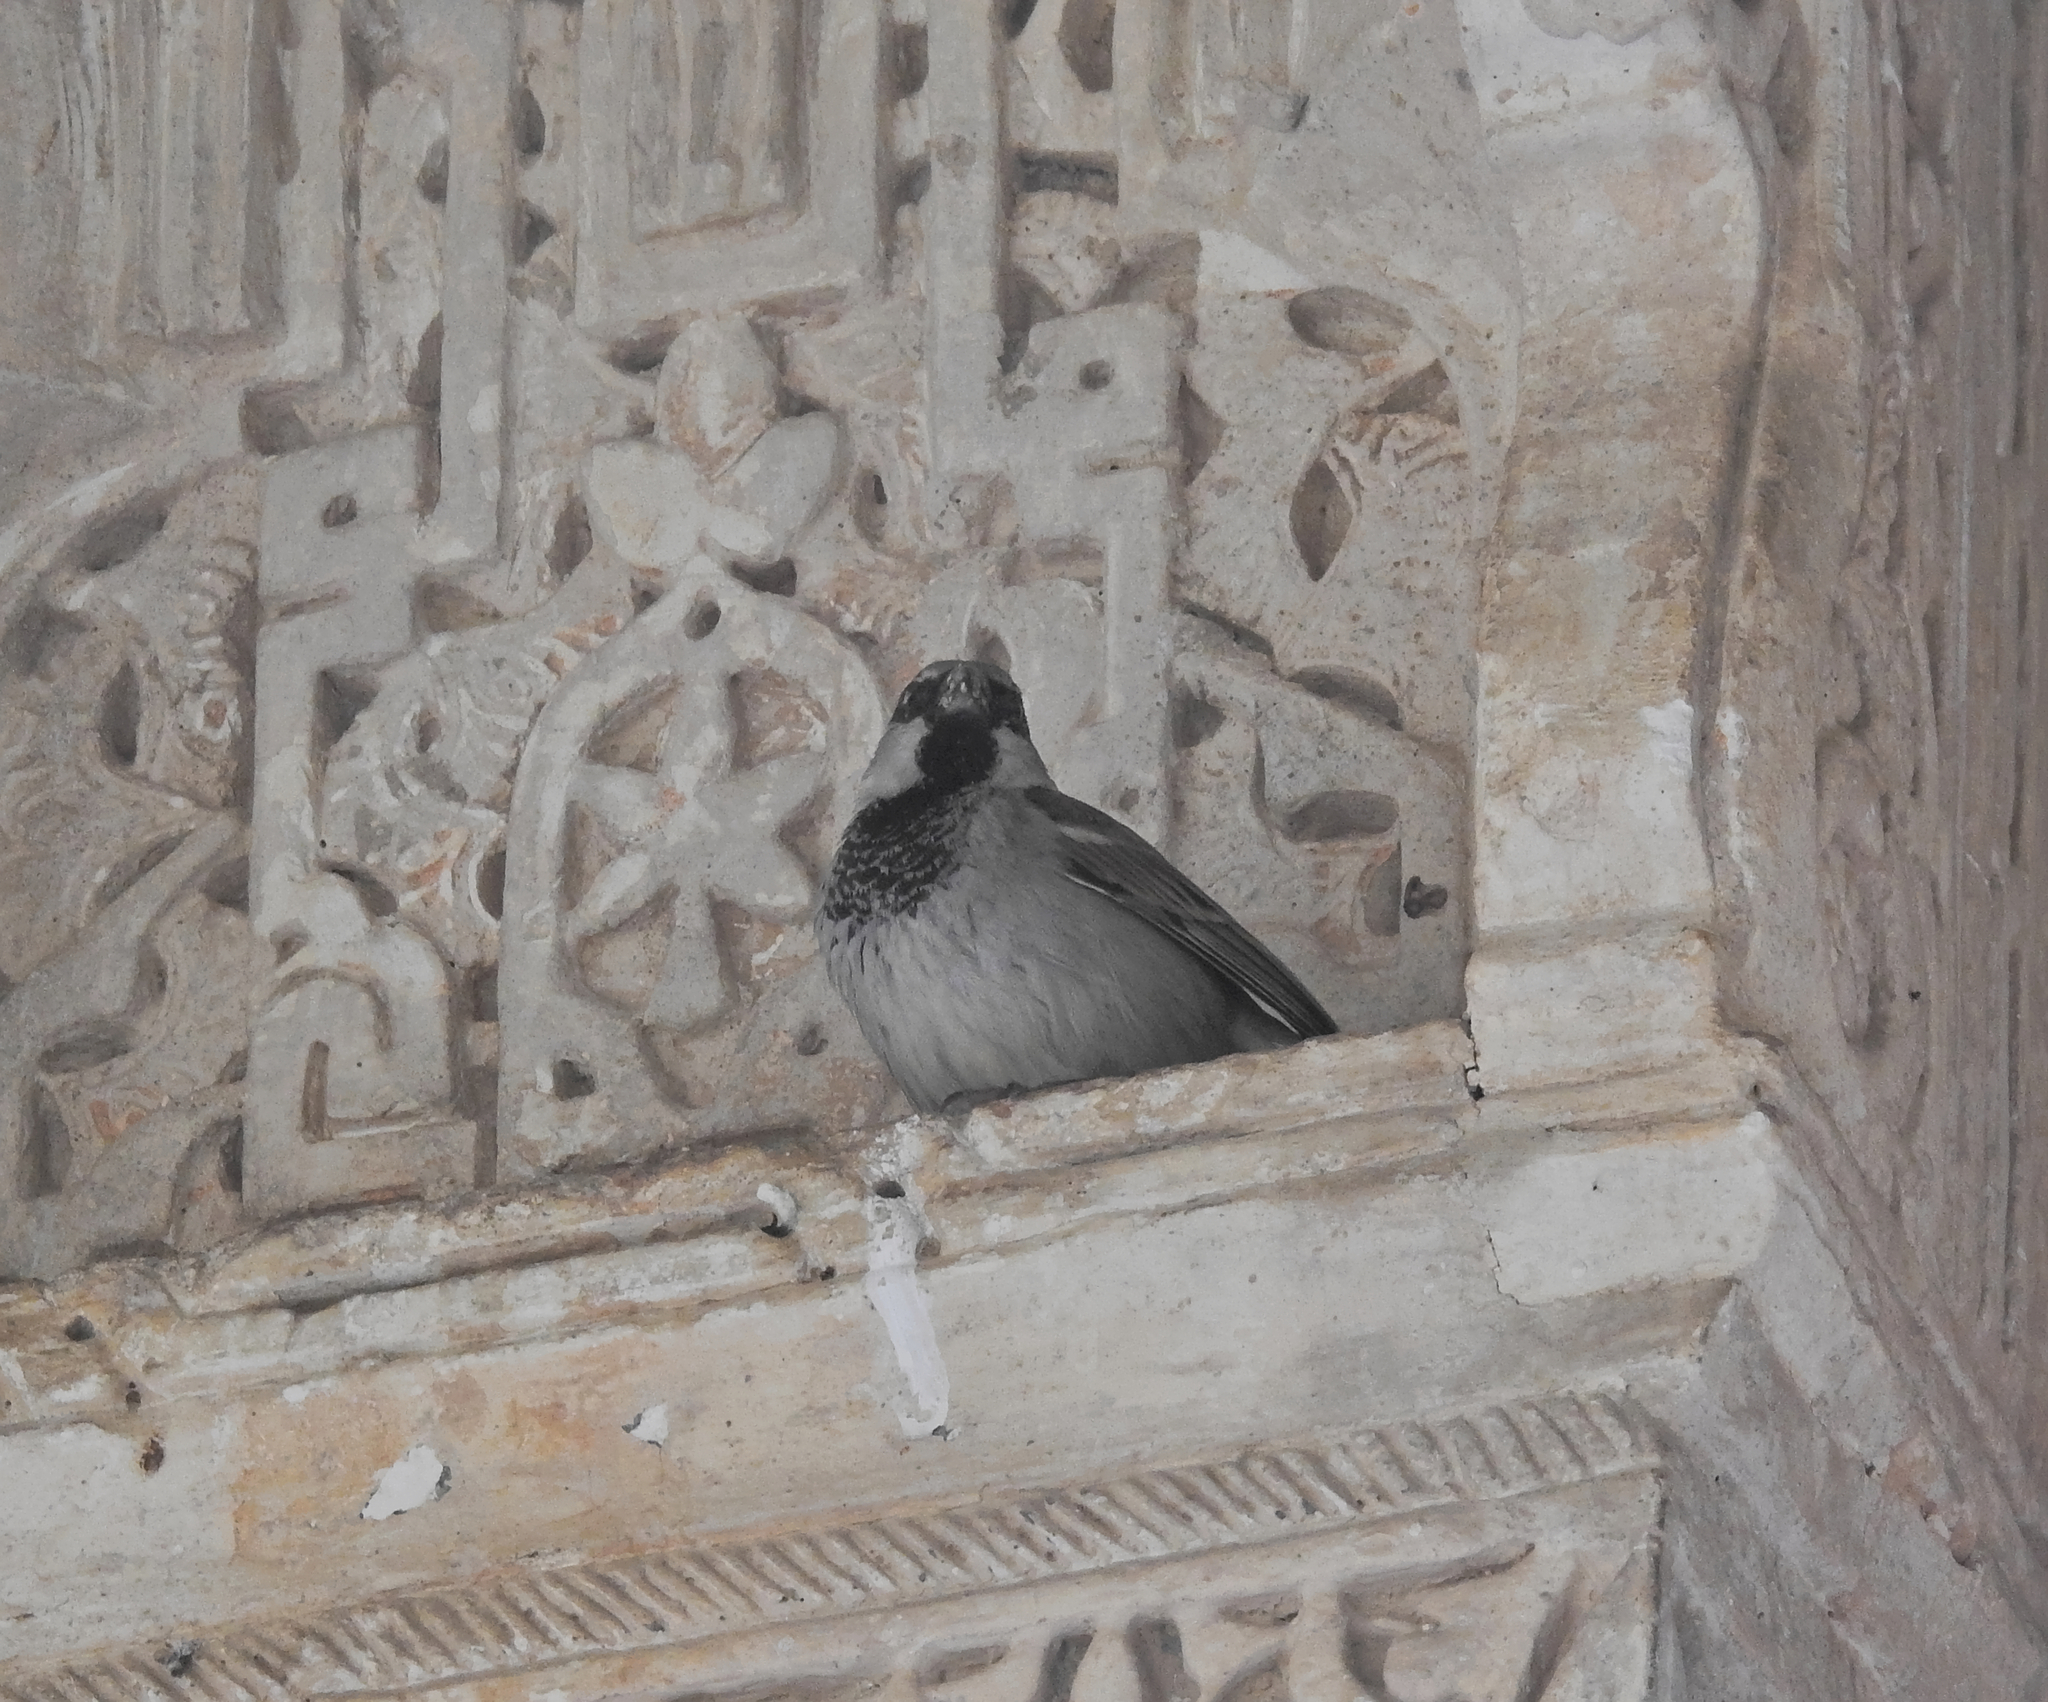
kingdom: Animalia
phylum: Chordata
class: Aves
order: Passeriformes
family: Passeridae
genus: Passer
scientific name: Passer domesticus
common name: House sparrow
